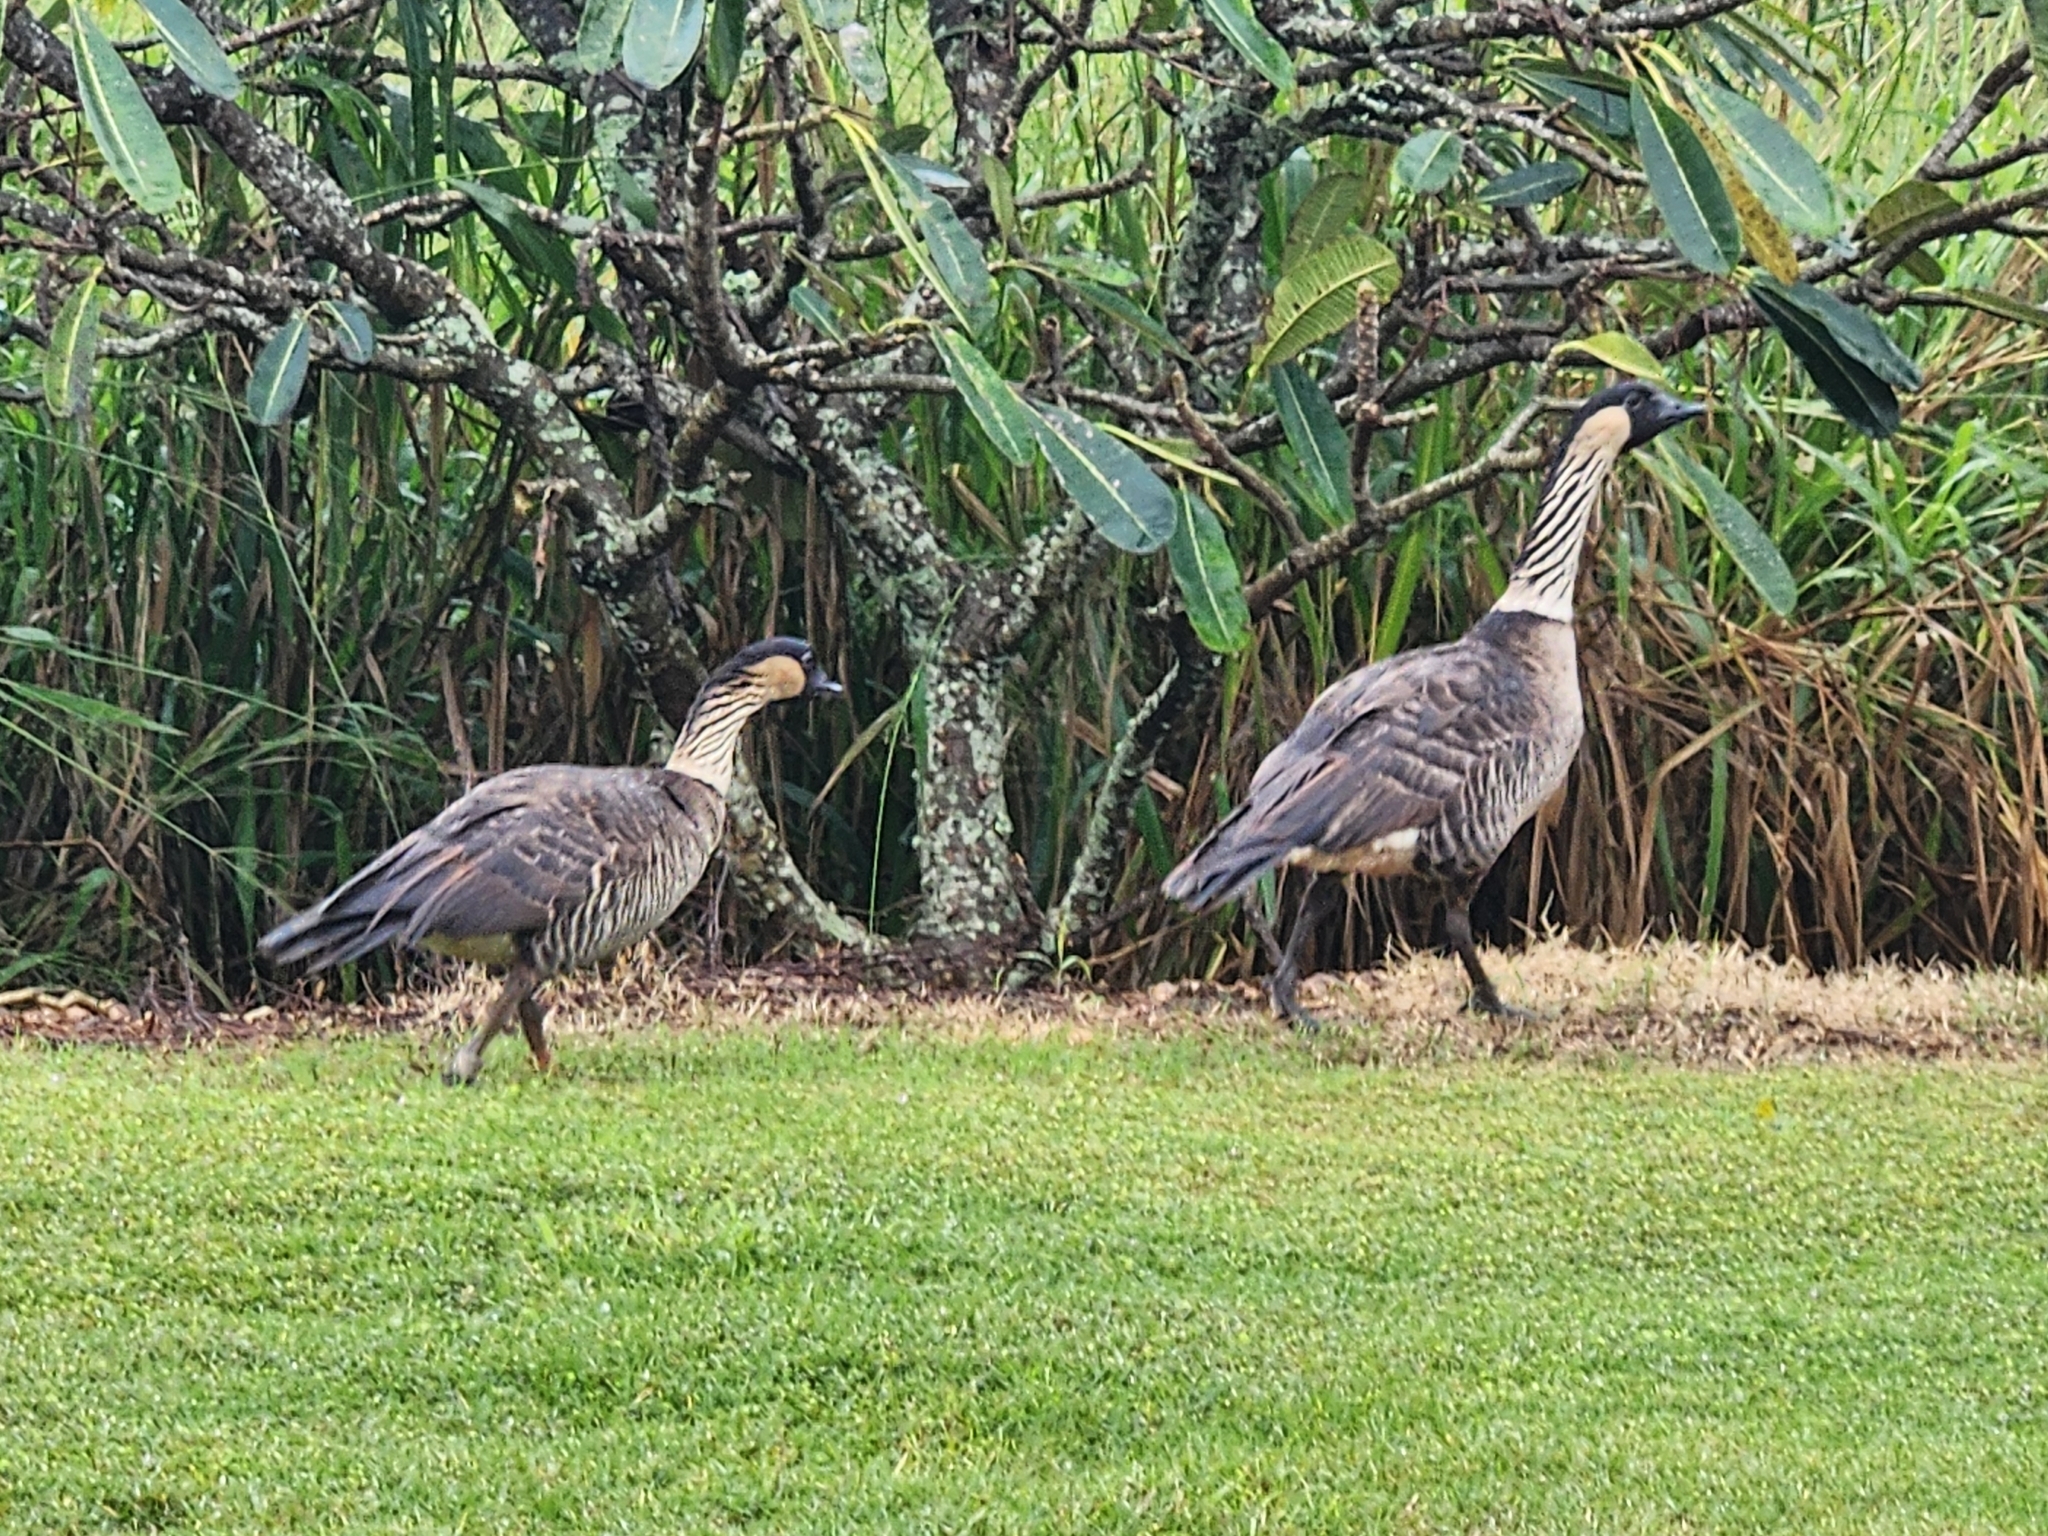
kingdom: Animalia
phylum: Chordata
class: Aves
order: Anseriformes
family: Anatidae
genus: Branta
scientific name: Branta sandvicensis
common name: Nene
